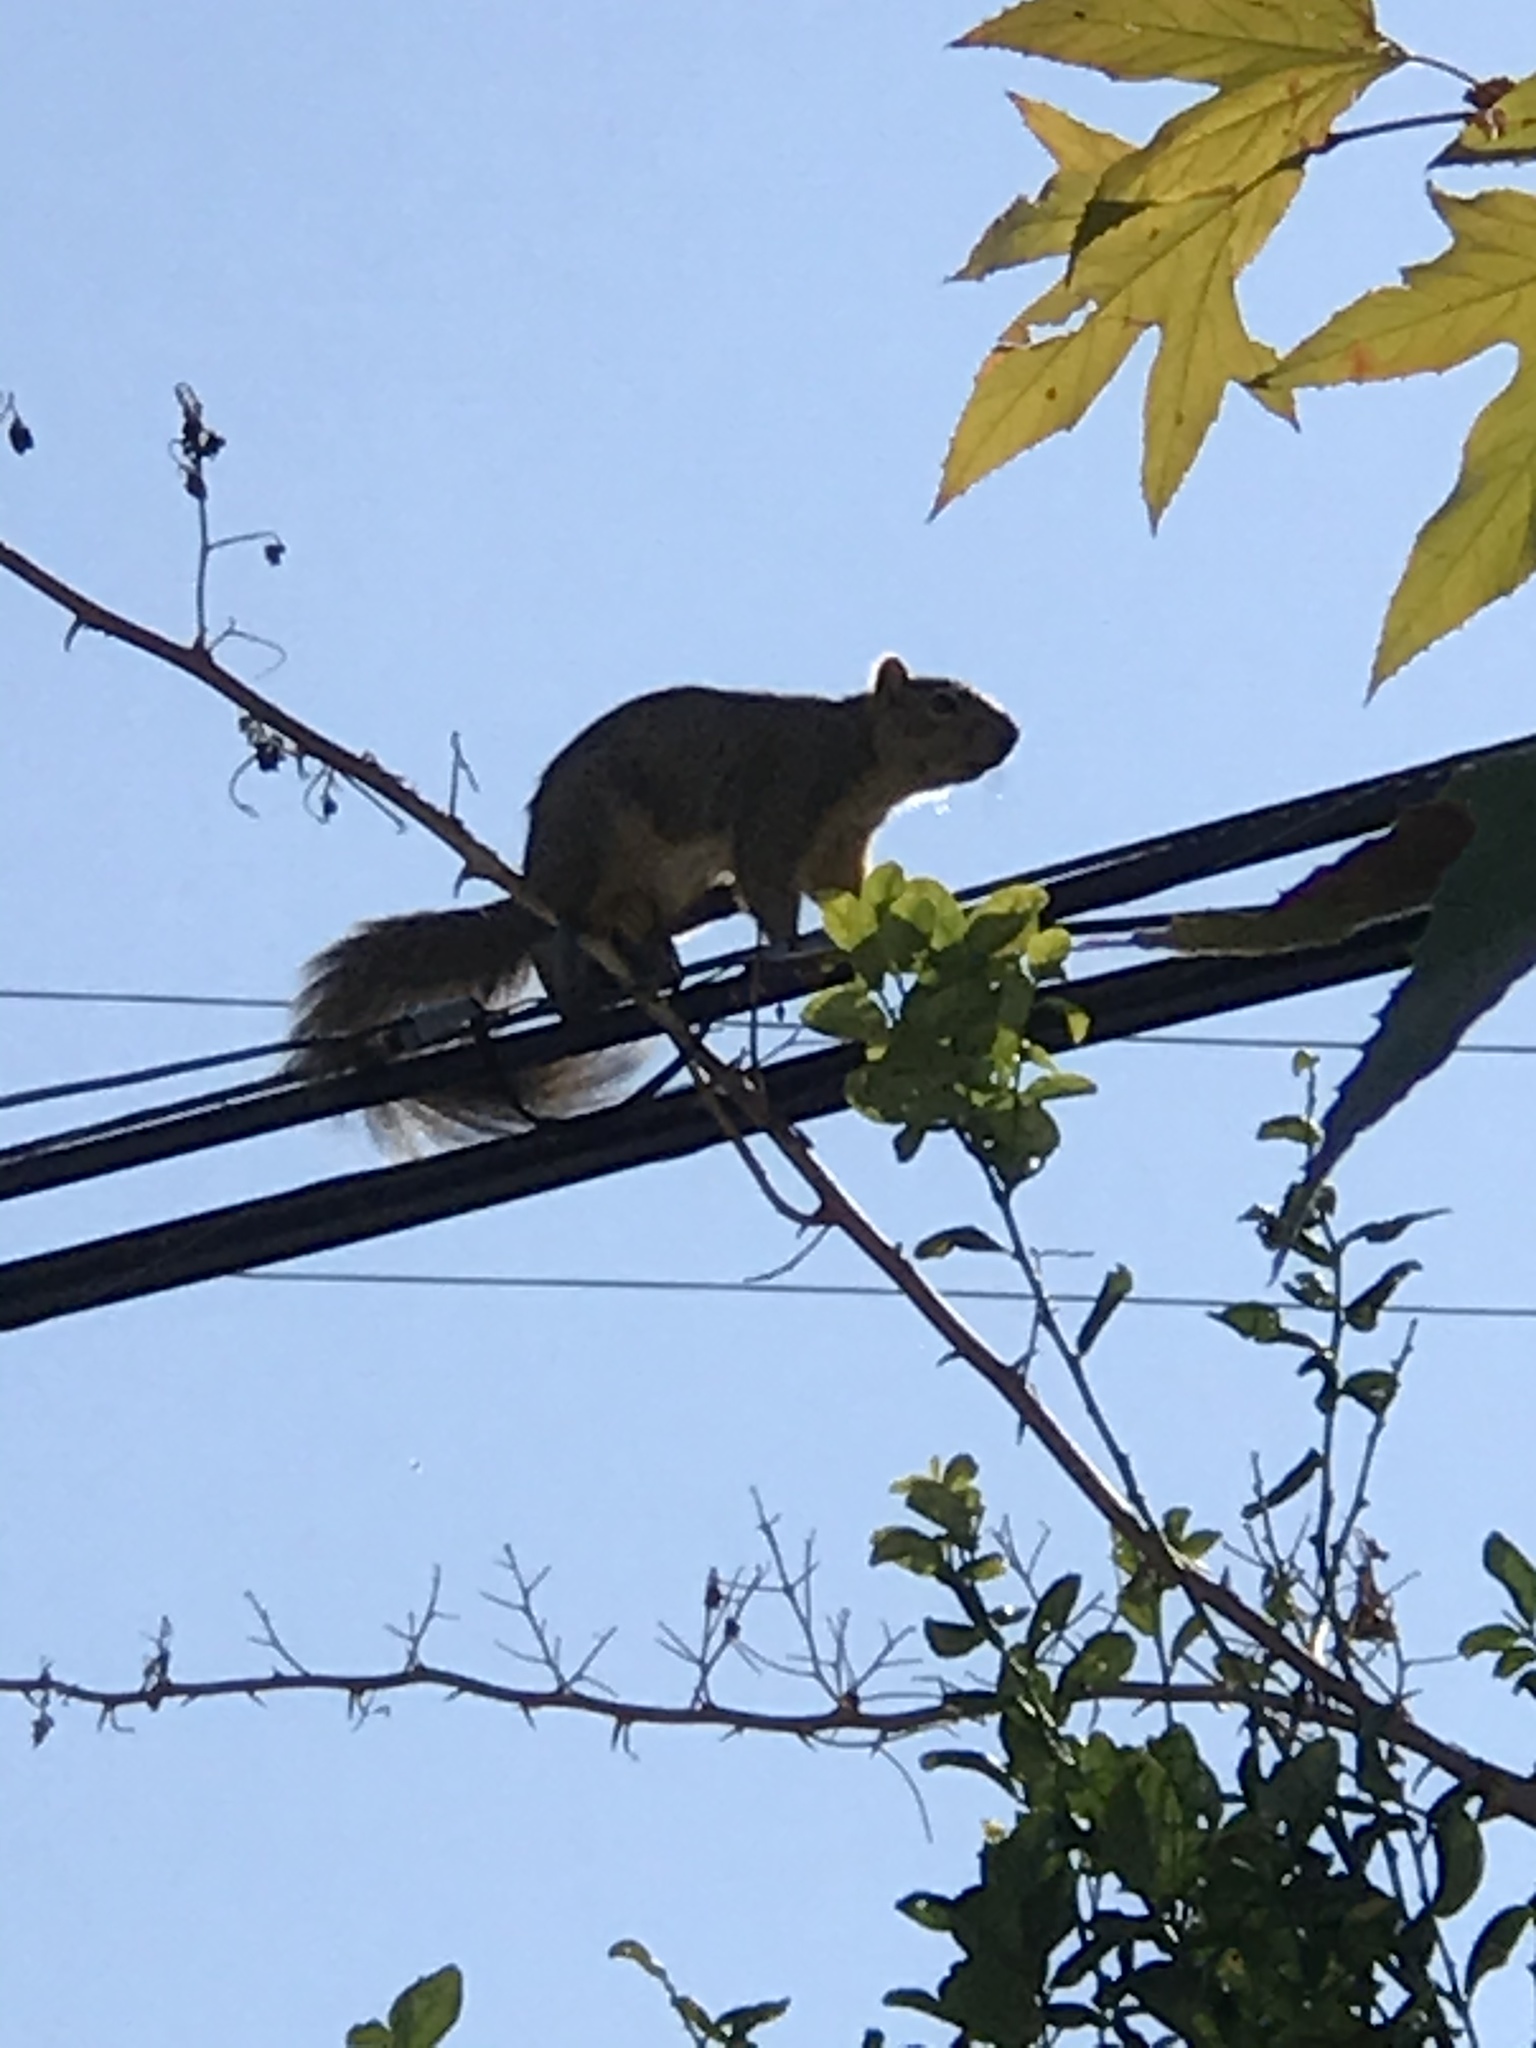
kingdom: Animalia
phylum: Chordata
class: Mammalia
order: Rodentia
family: Sciuridae
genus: Sciurus
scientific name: Sciurus niger
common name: Fox squirrel
